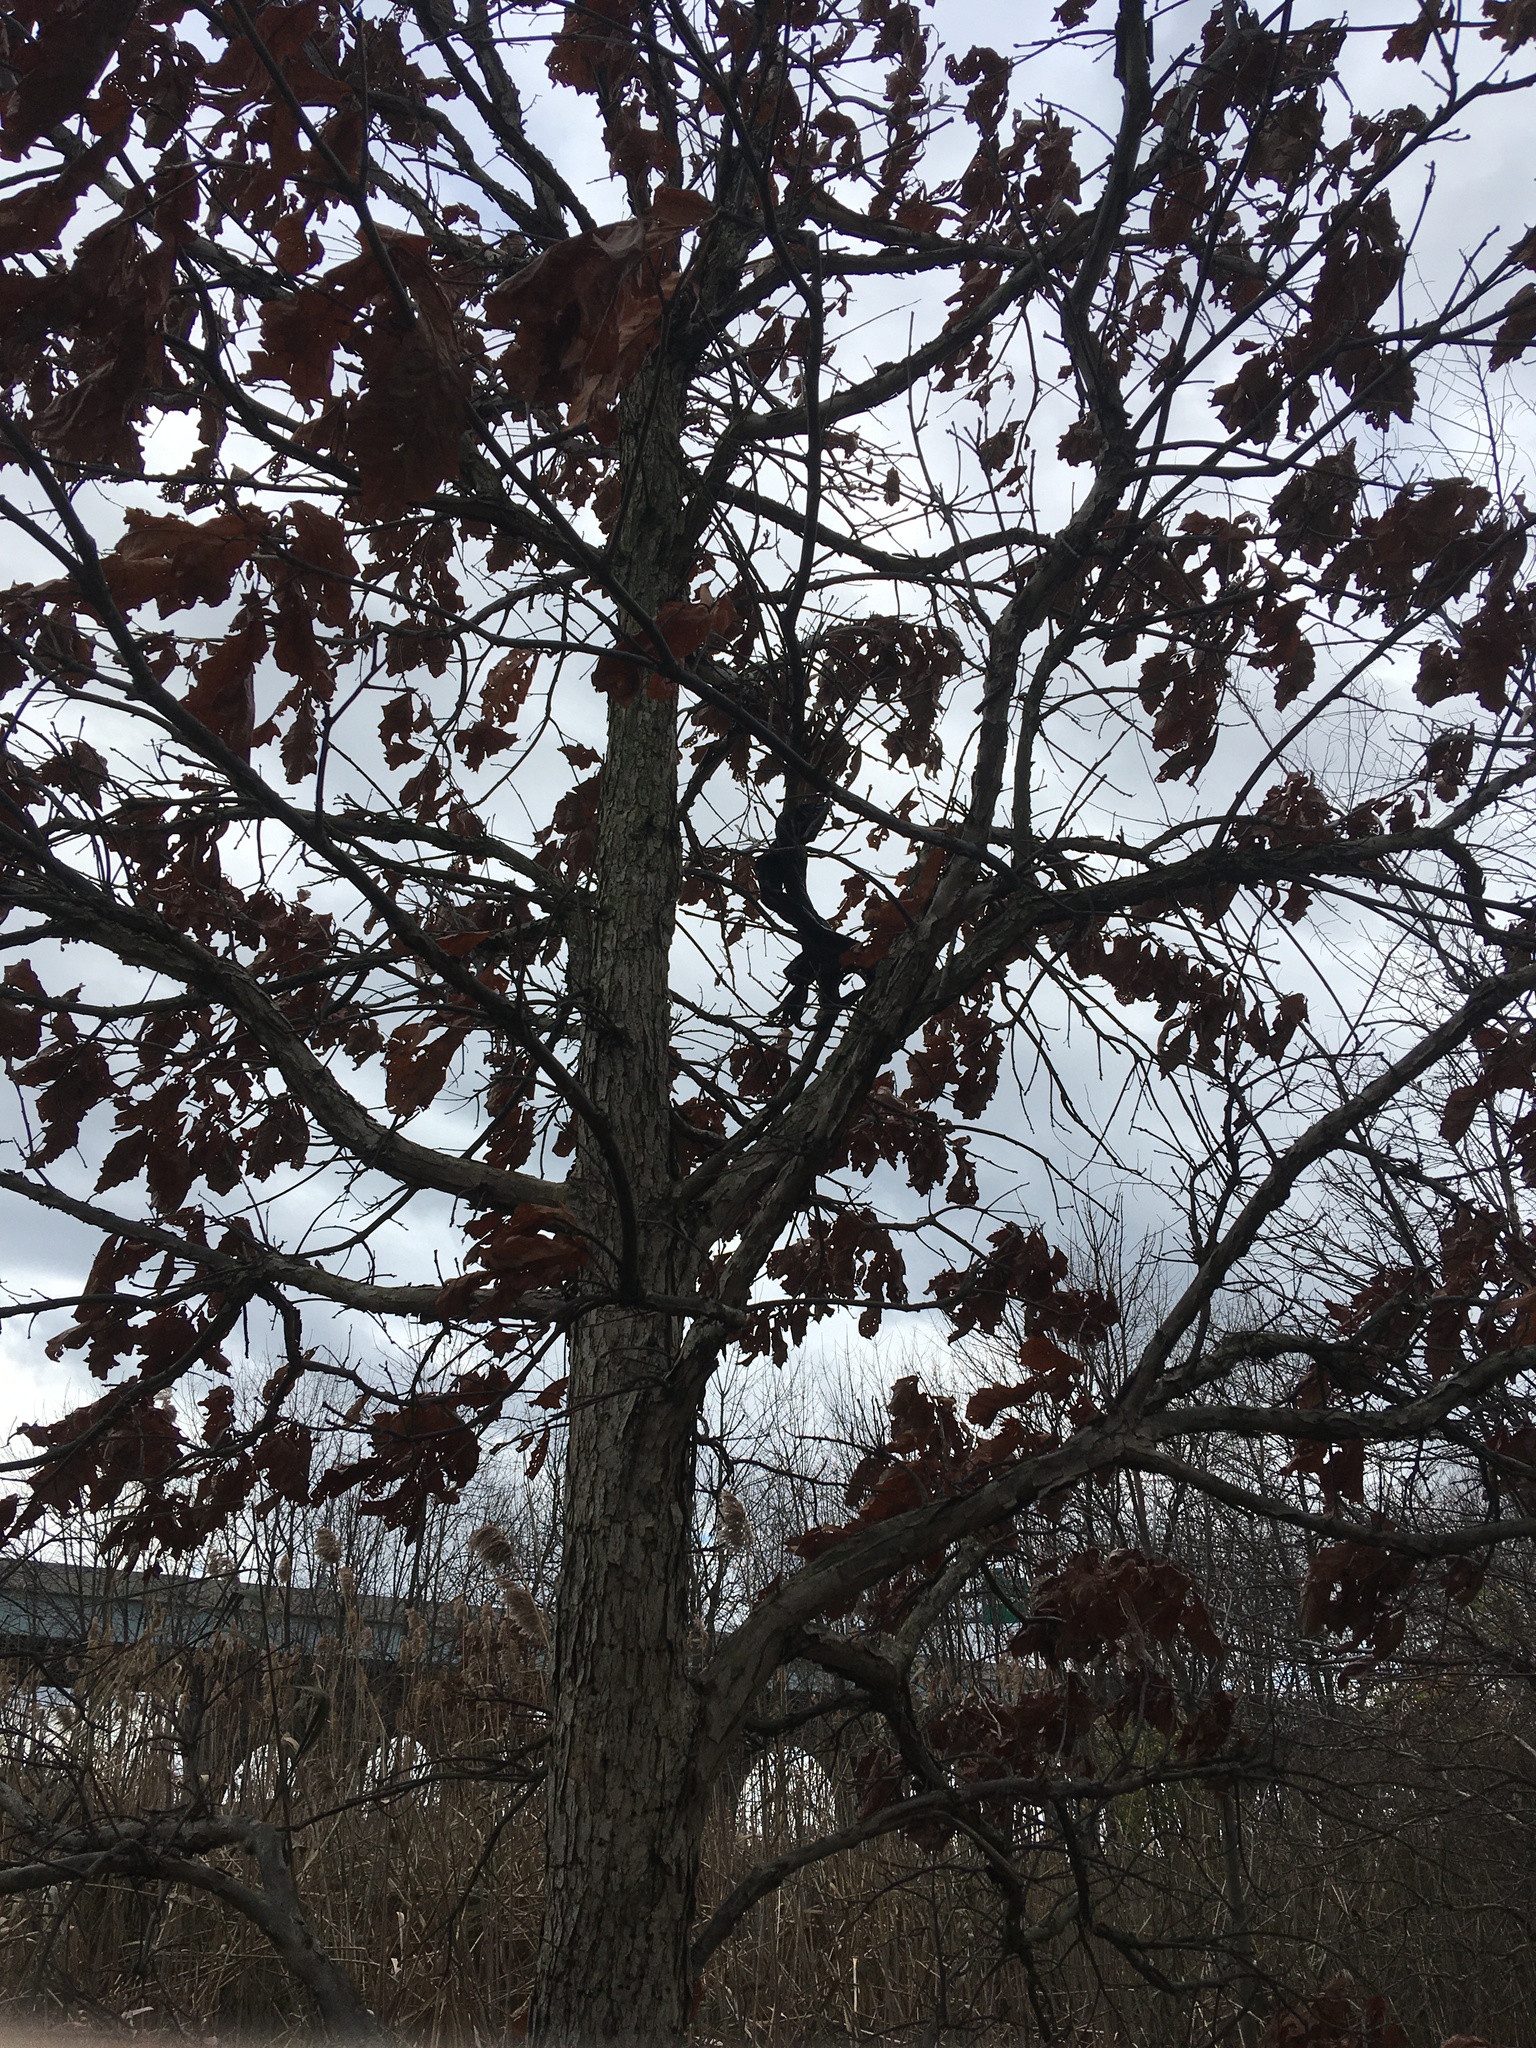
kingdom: Plantae
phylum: Tracheophyta
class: Magnoliopsida
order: Fagales
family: Fagaceae
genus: Quercus
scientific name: Quercus bicolor
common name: Swamp white oak
